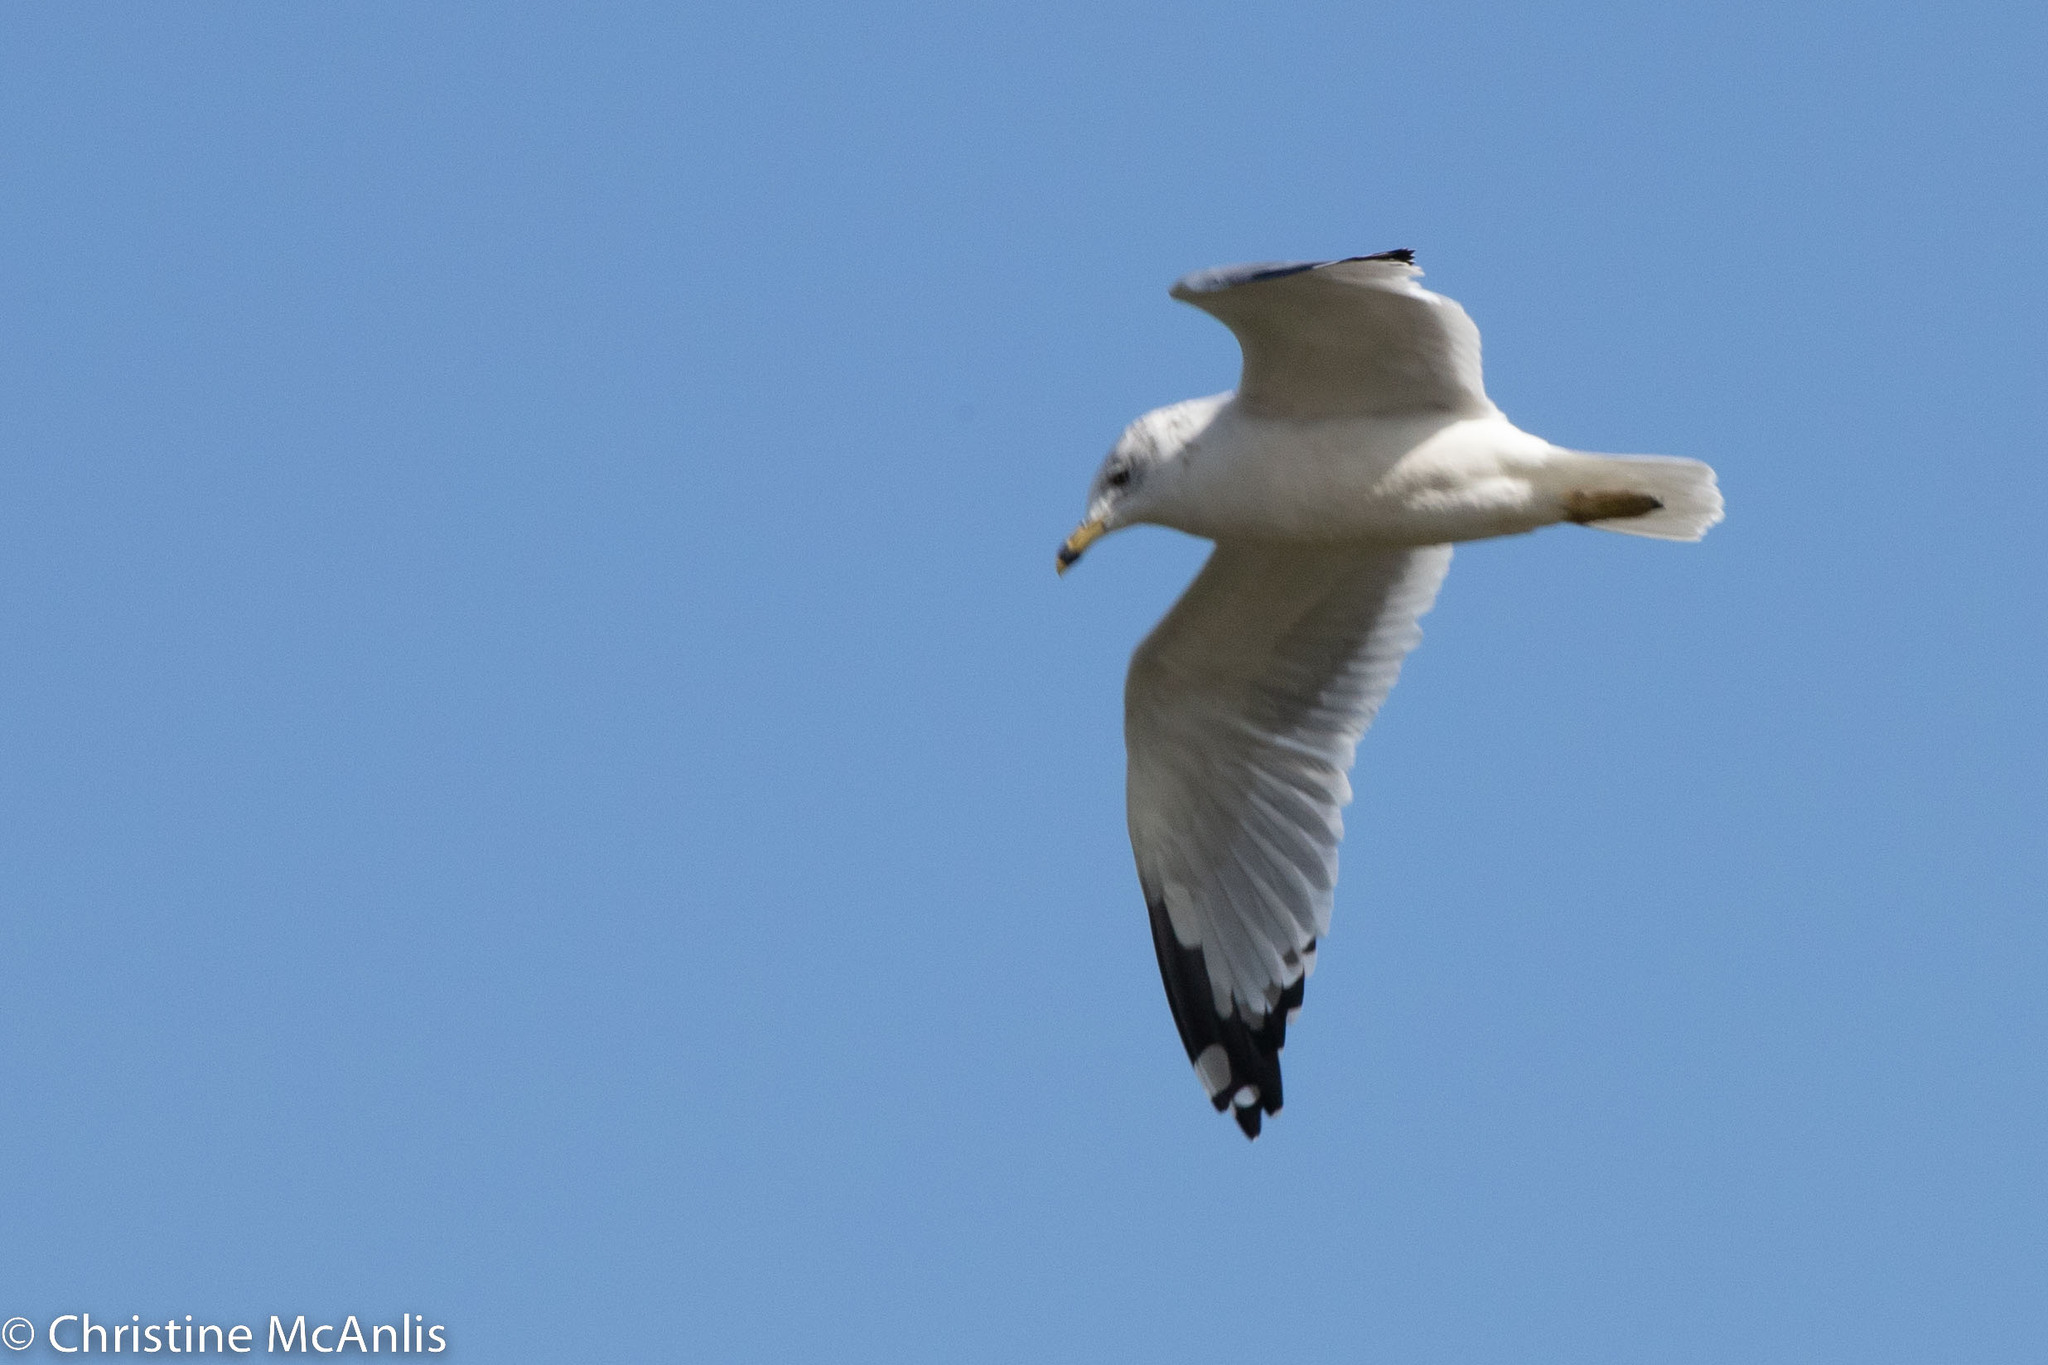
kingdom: Animalia
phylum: Chordata
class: Aves
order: Charadriiformes
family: Laridae
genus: Larus
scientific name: Larus delawarensis
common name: Ring-billed gull
